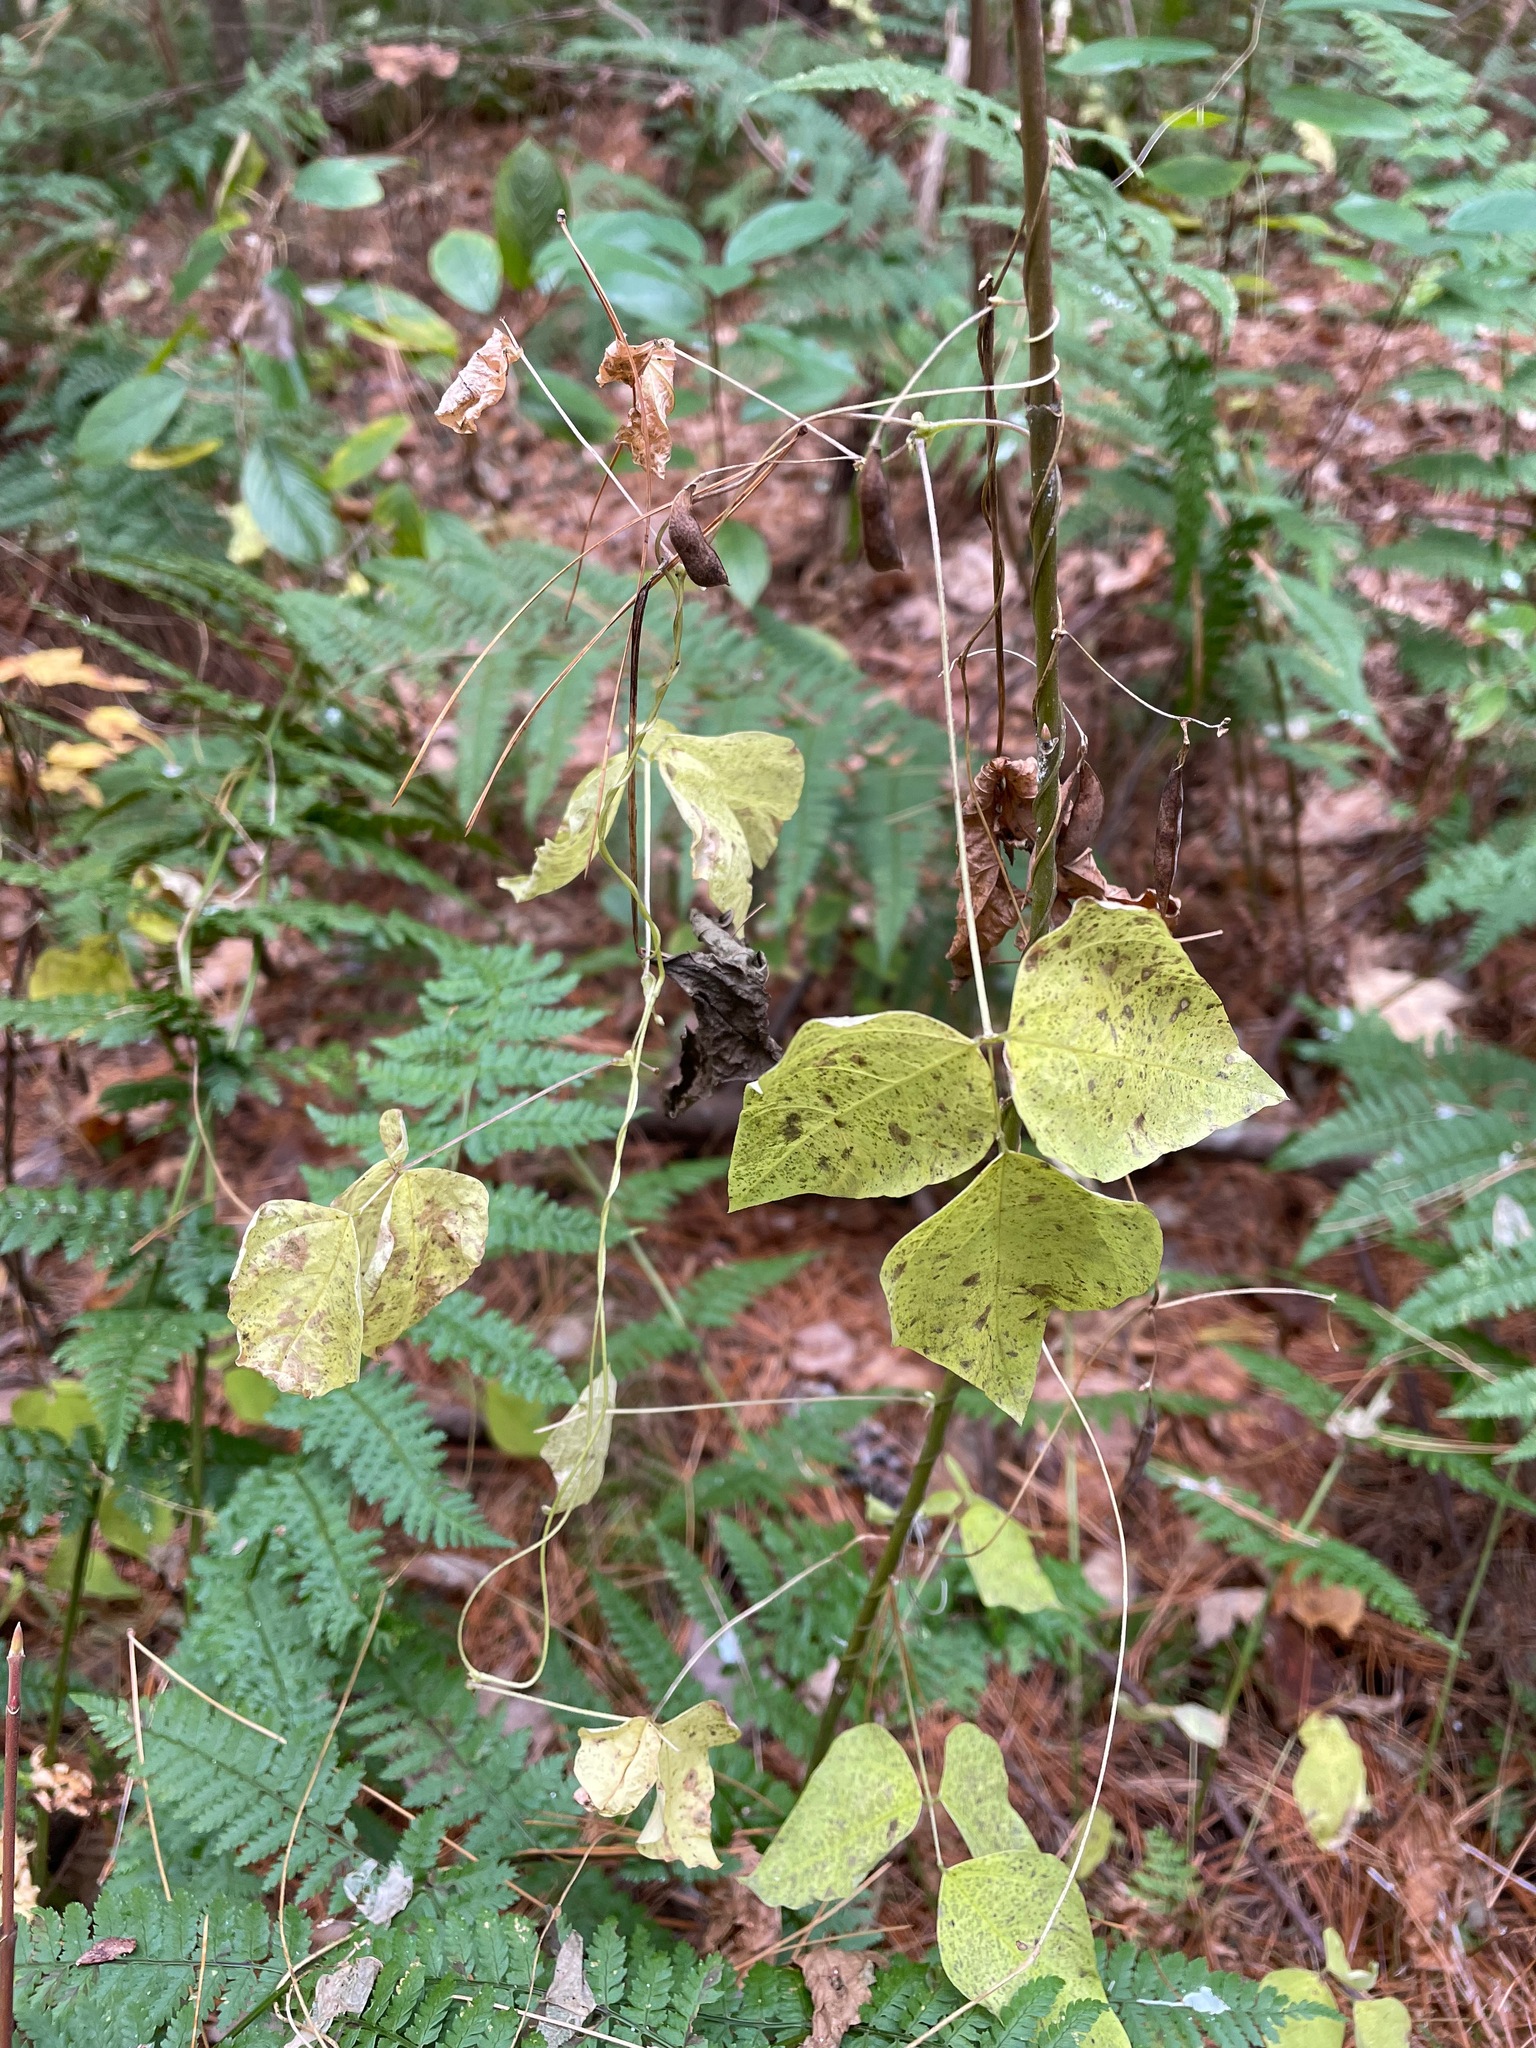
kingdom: Plantae
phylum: Tracheophyta
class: Magnoliopsida
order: Fabales
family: Fabaceae
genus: Amphicarpaea
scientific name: Amphicarpaea bracteata
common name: American hog peanut
